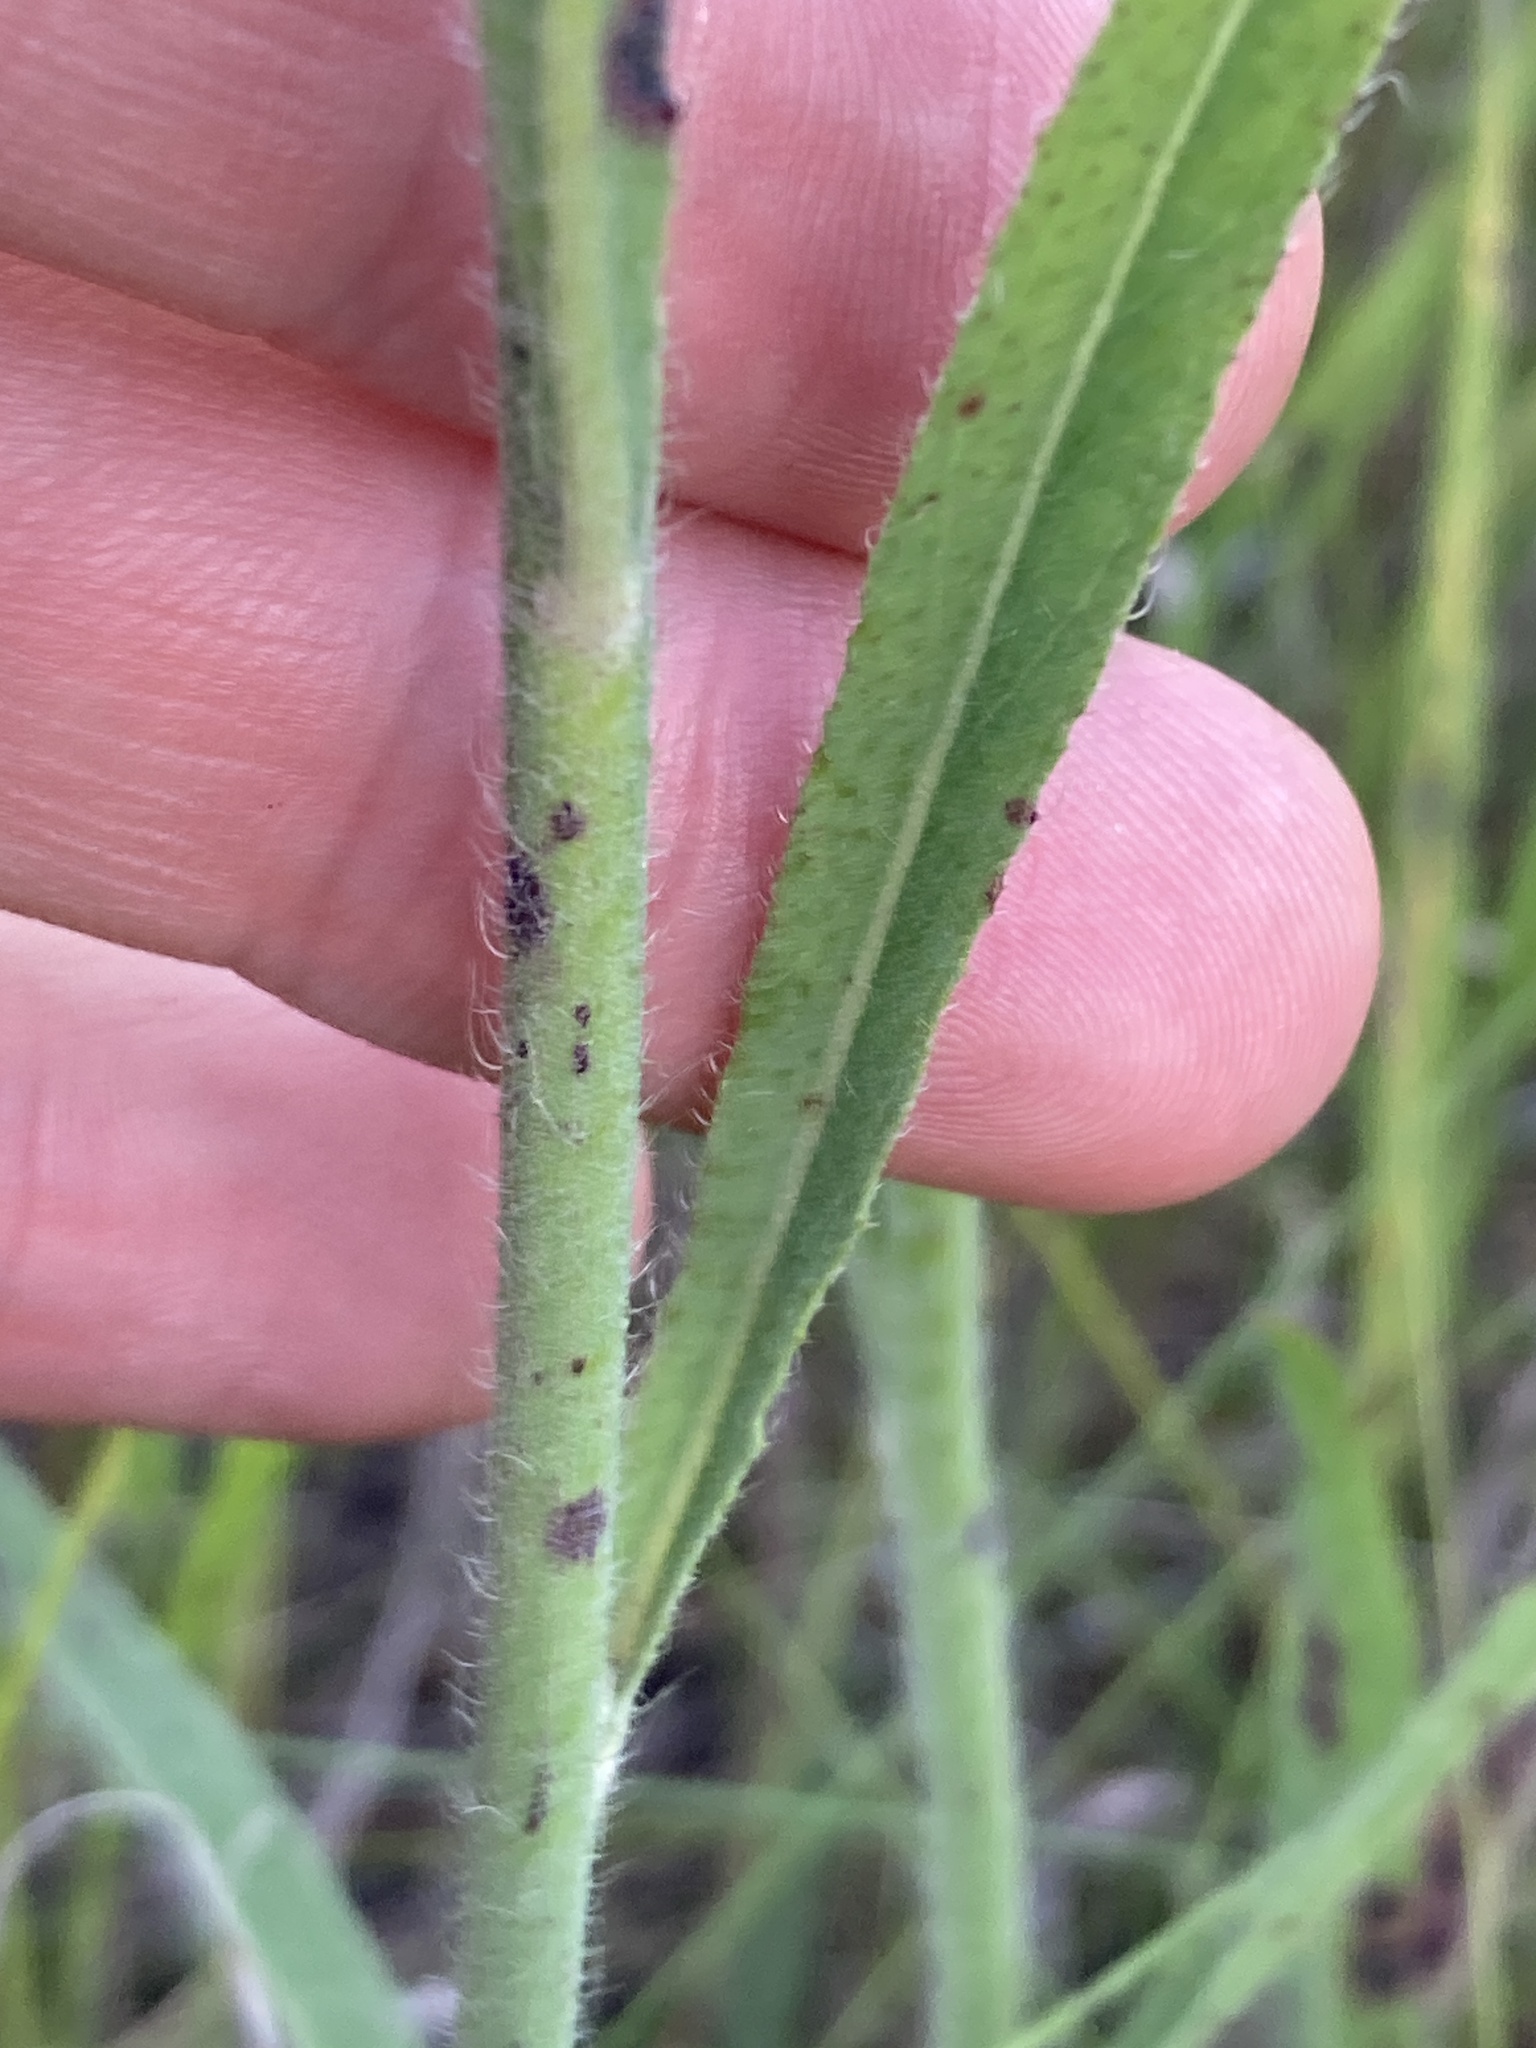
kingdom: Plantae
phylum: Tracheophyta
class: Magnoliopsida
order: Asterales
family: Asteraceae
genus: Pilosella
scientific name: Pilosella echioides
